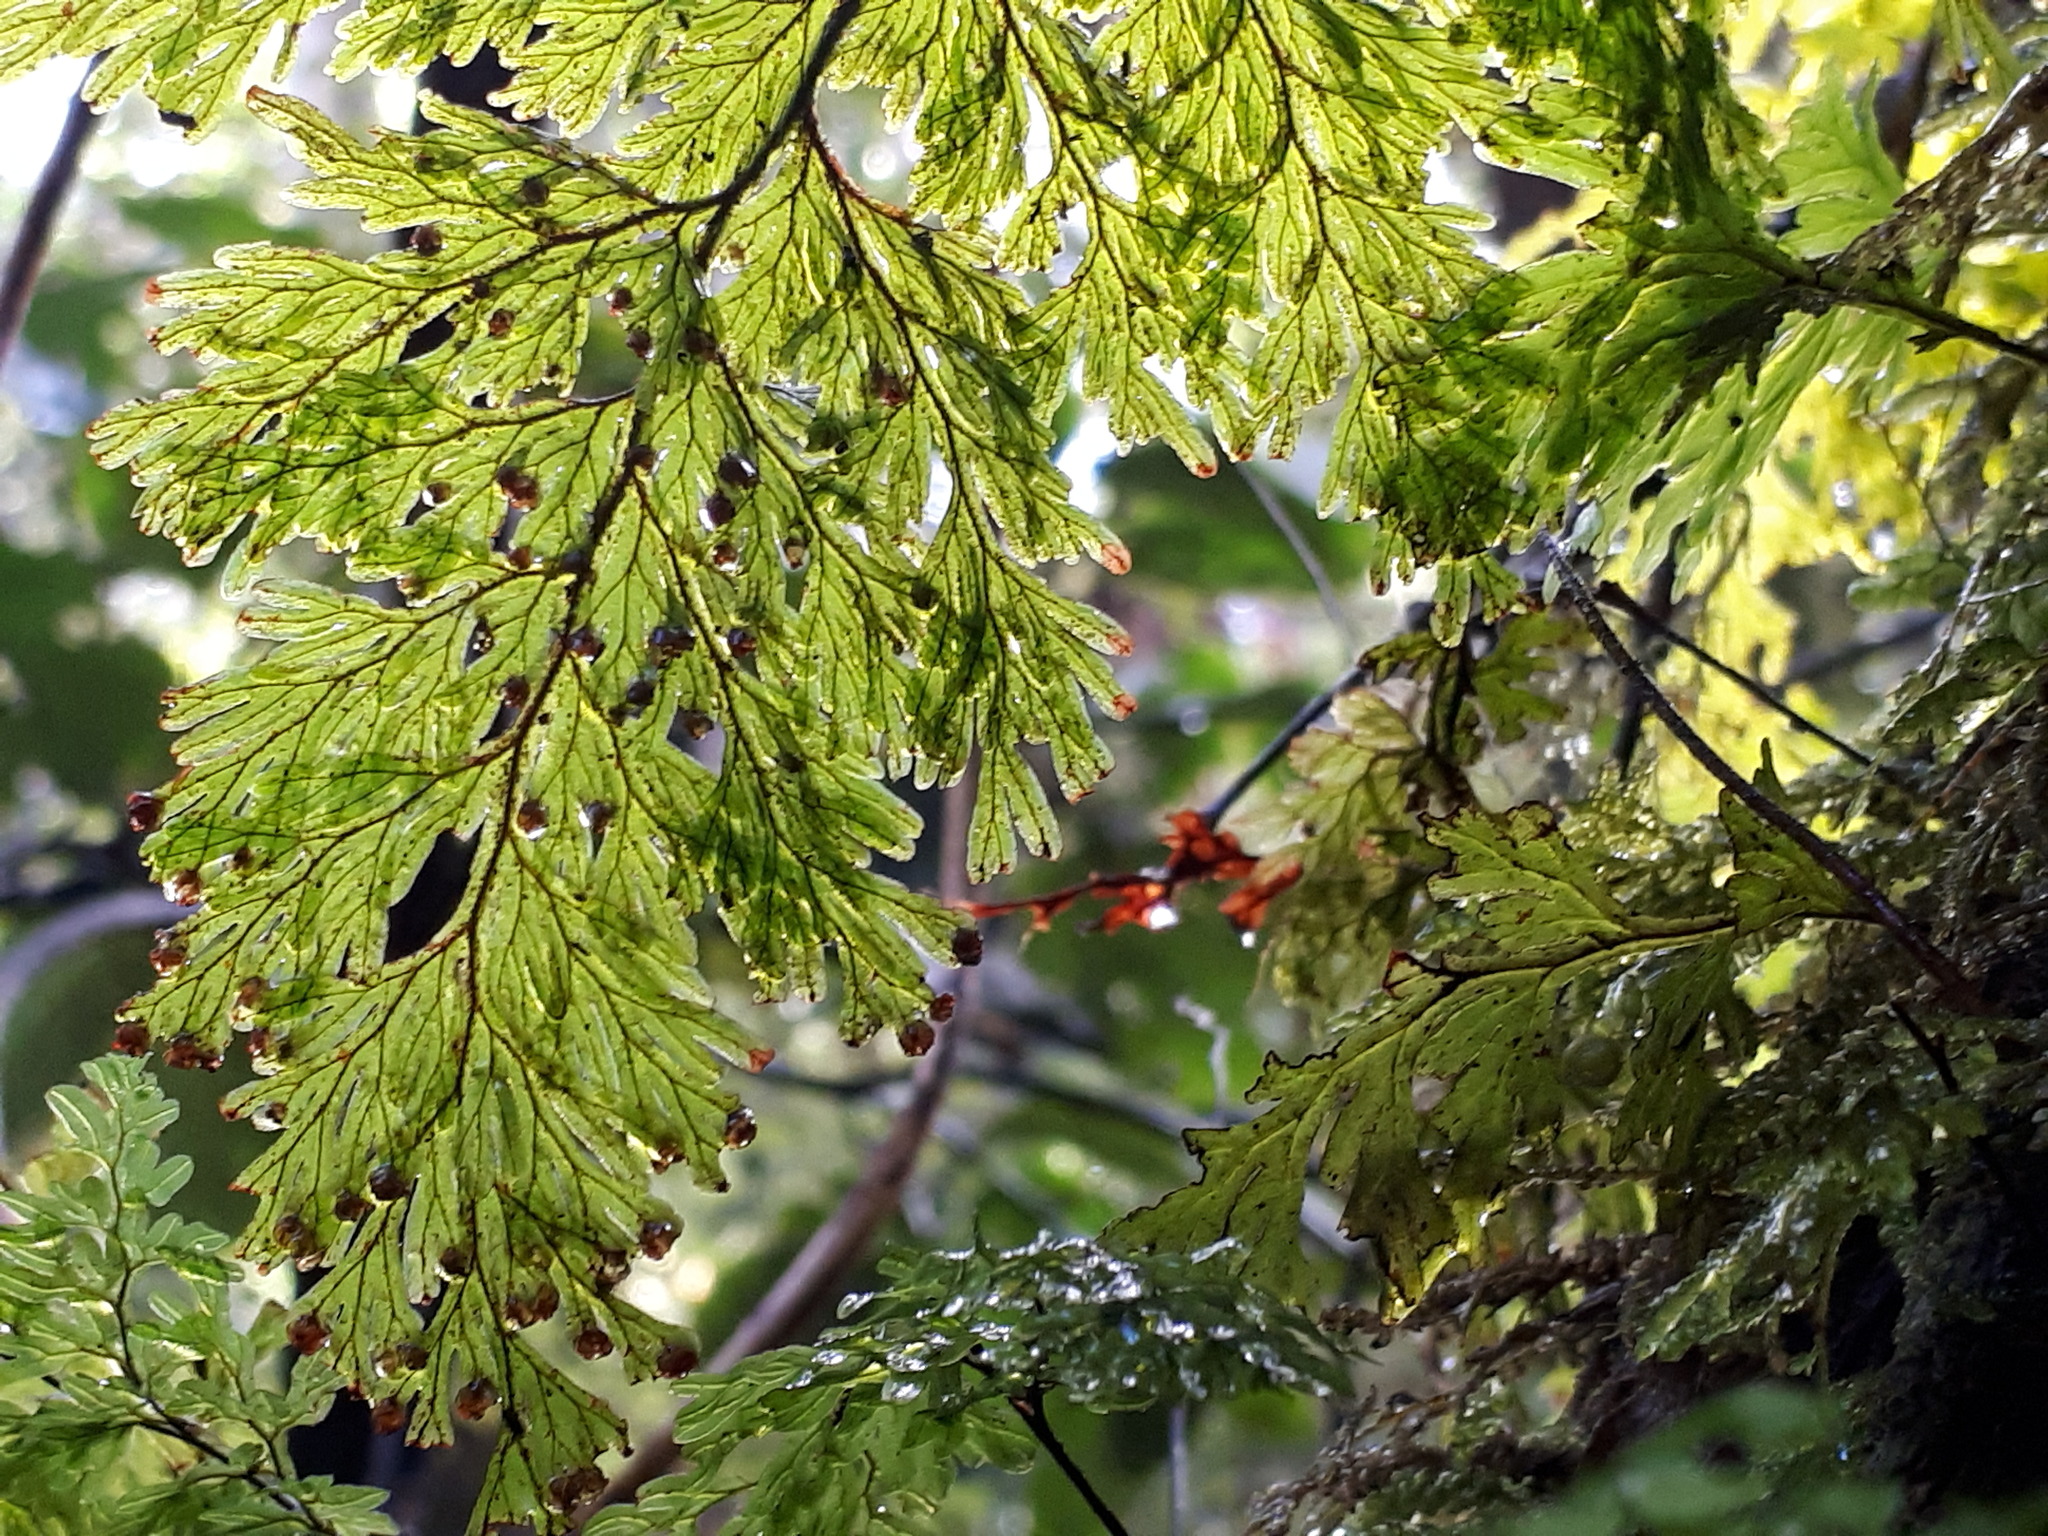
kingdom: Plantae
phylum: Tracheophyta
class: Polypodiopsida
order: Hymenophyllales
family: Hymenophyllaceae
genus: Hymenophyllum
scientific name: Hymenophyllum sanguinolentum
